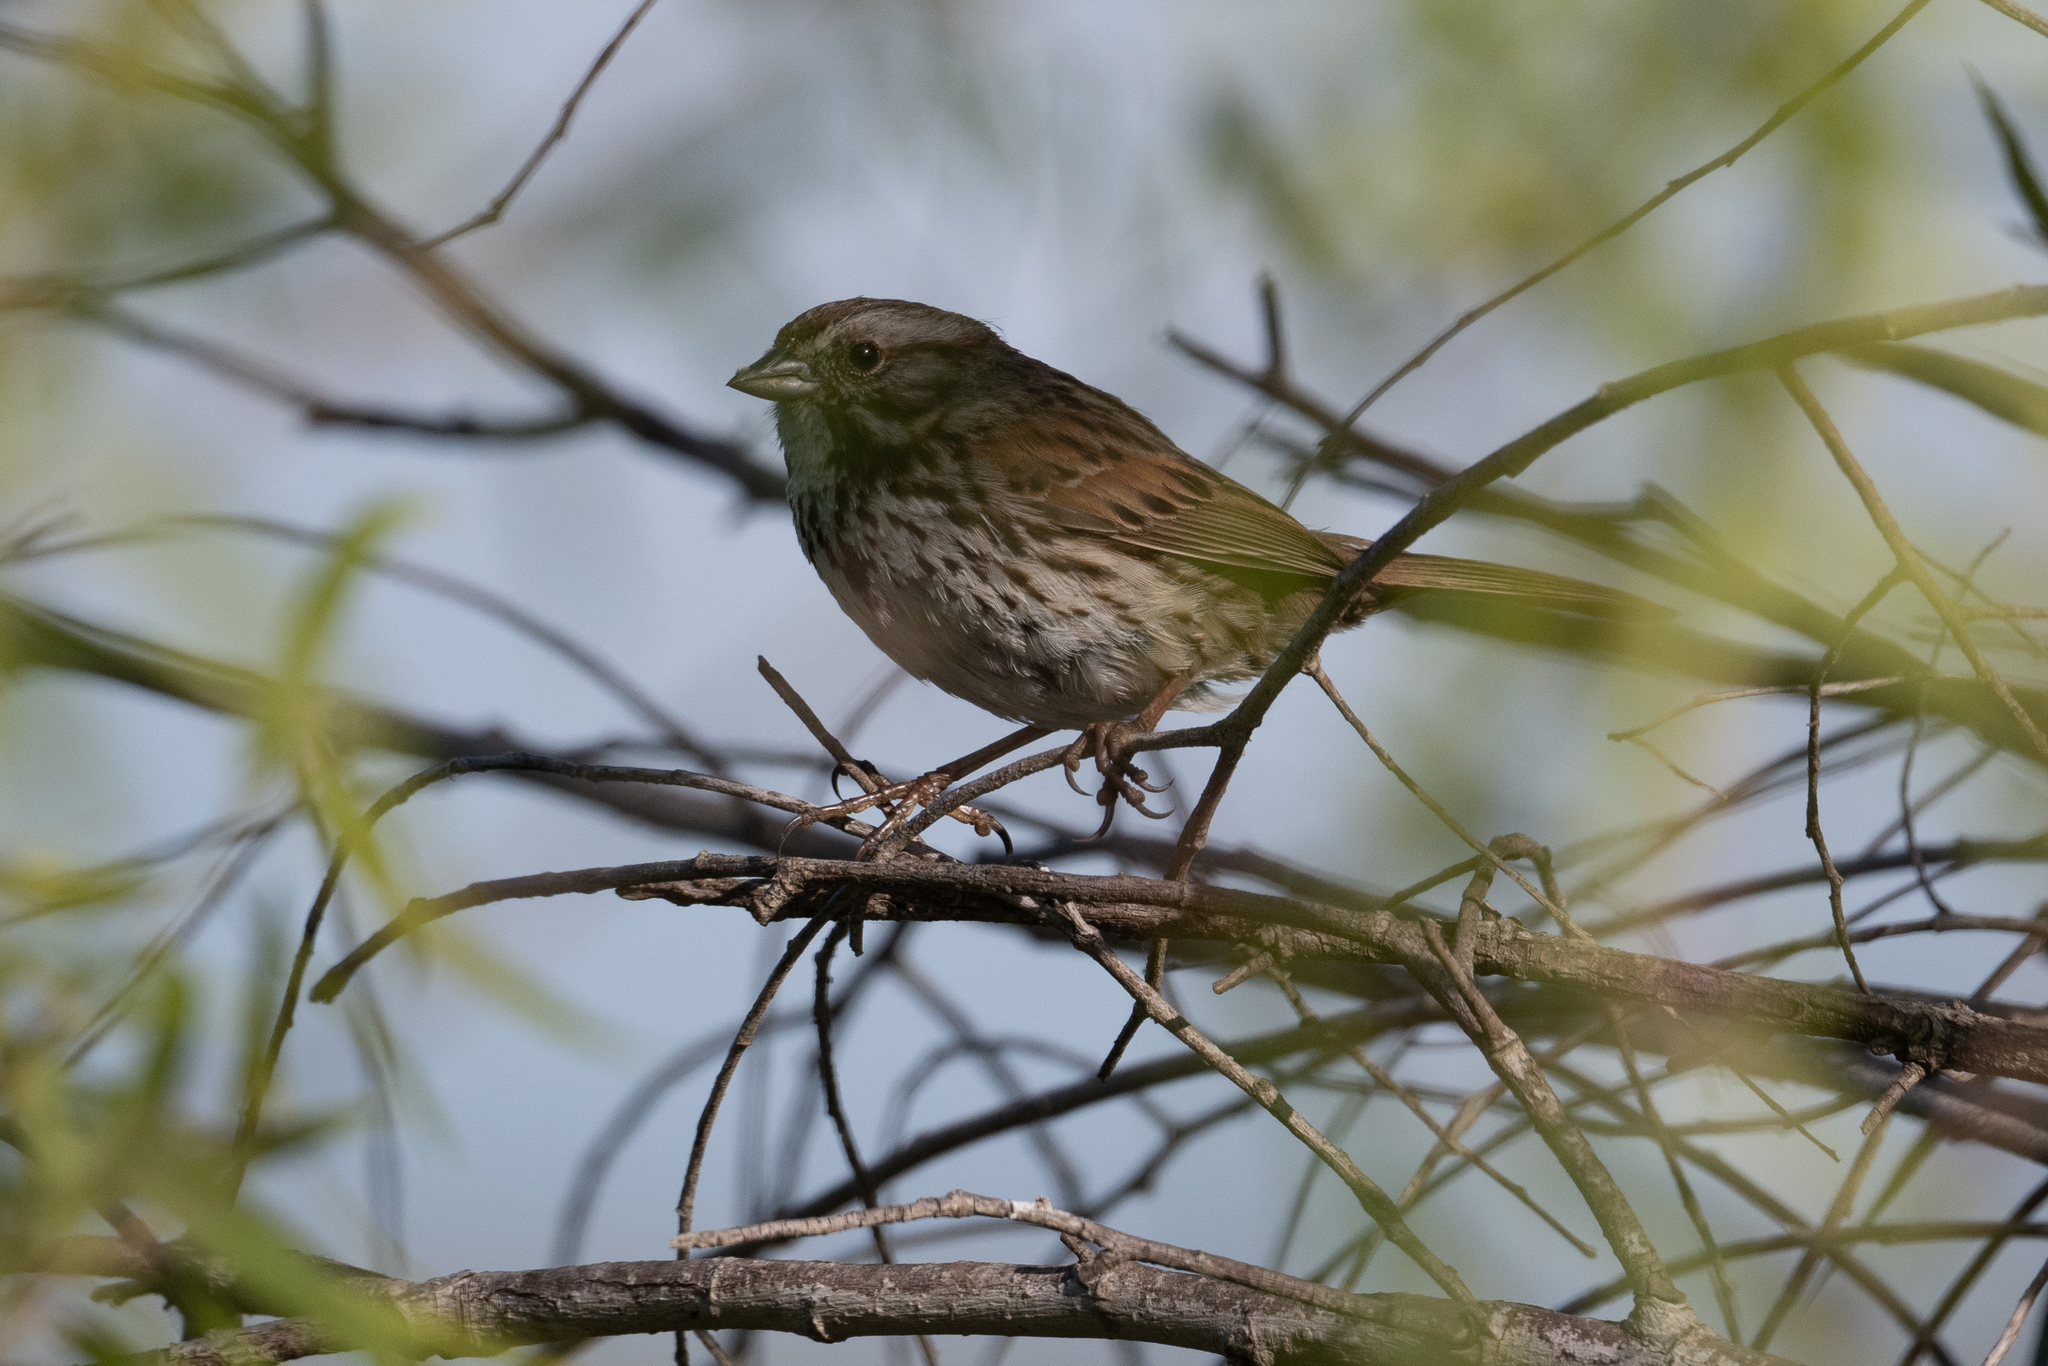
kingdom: Animalia
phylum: Chordata
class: Aves
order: Passeriformes
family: Passerellidae
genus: Melospiza
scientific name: Melospiza melodia
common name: Song sparrow
